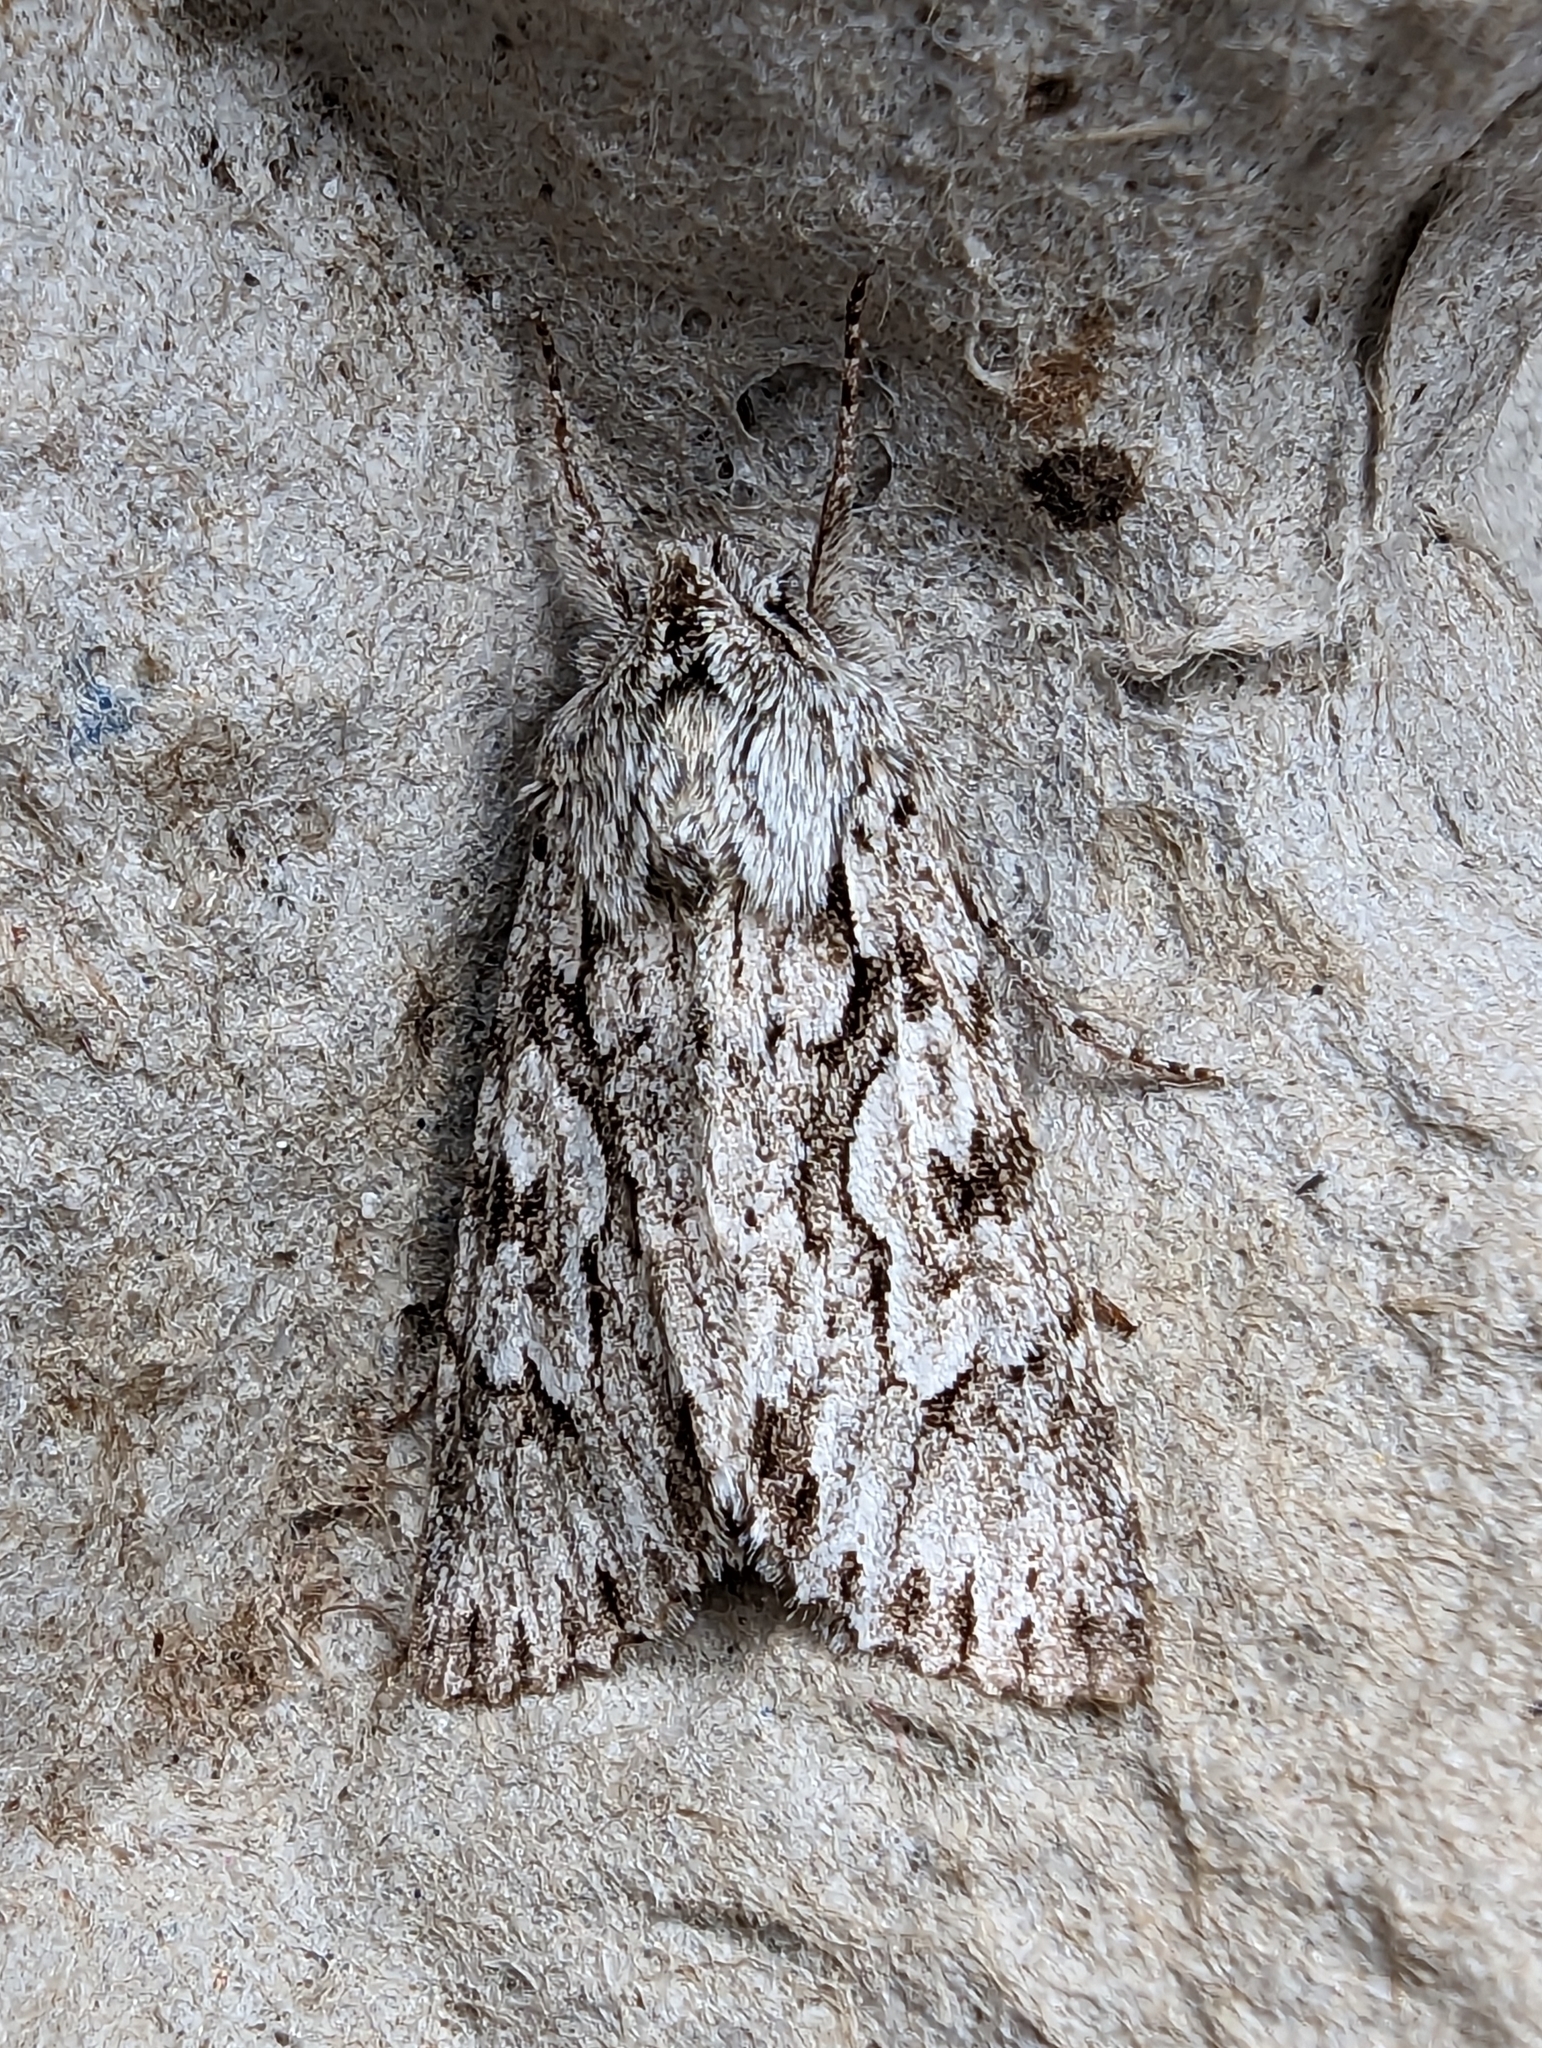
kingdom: Animalia
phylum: Arthropoda
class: Insecta
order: Lepidoptera
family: Noctuidae
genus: Xylocampa
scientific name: Xylocampa areola
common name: Early grey
